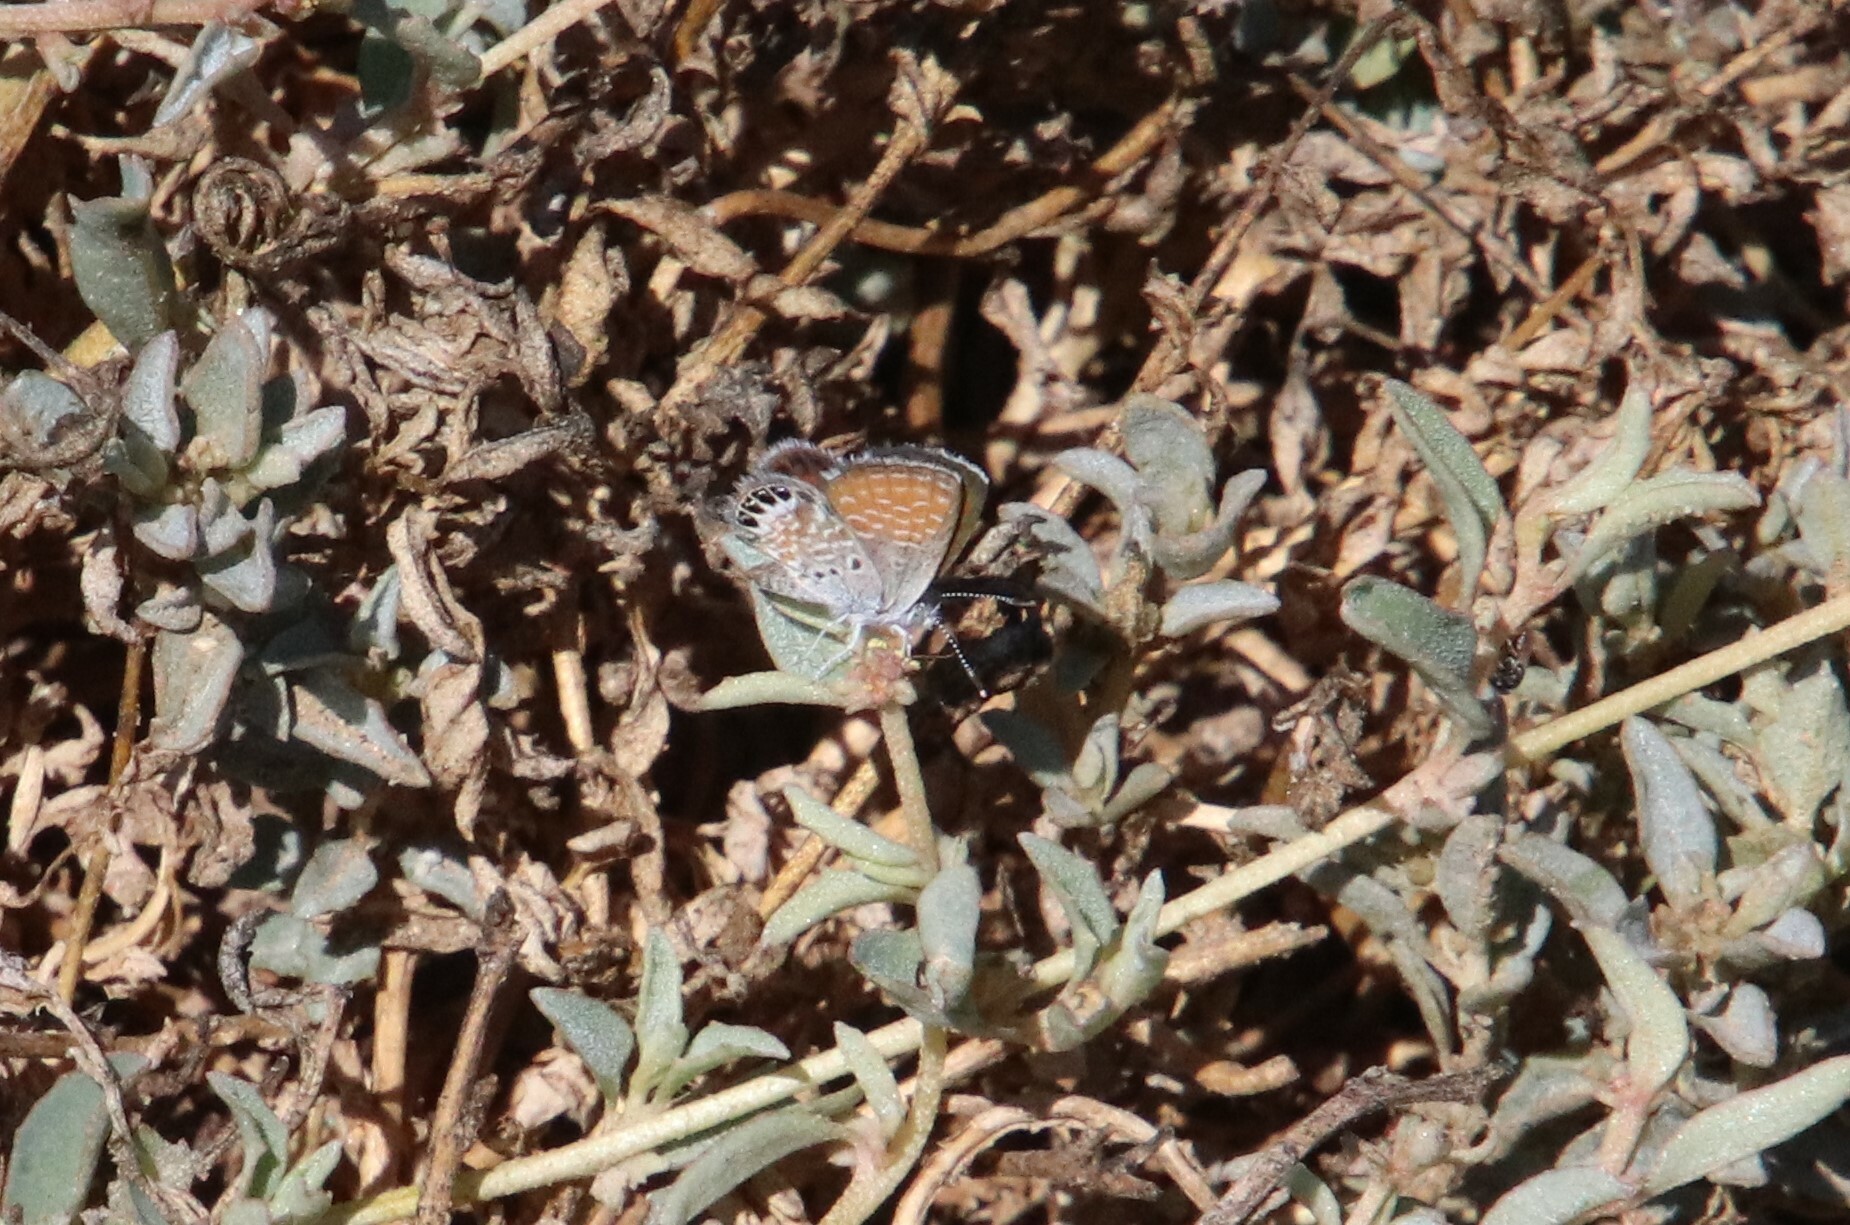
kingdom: Animalia
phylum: Arthropoda
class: Insecta
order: Lepidoptera
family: Lycaenidae
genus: Brephidium
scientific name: Brephidium exilis
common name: Pygmy blue
